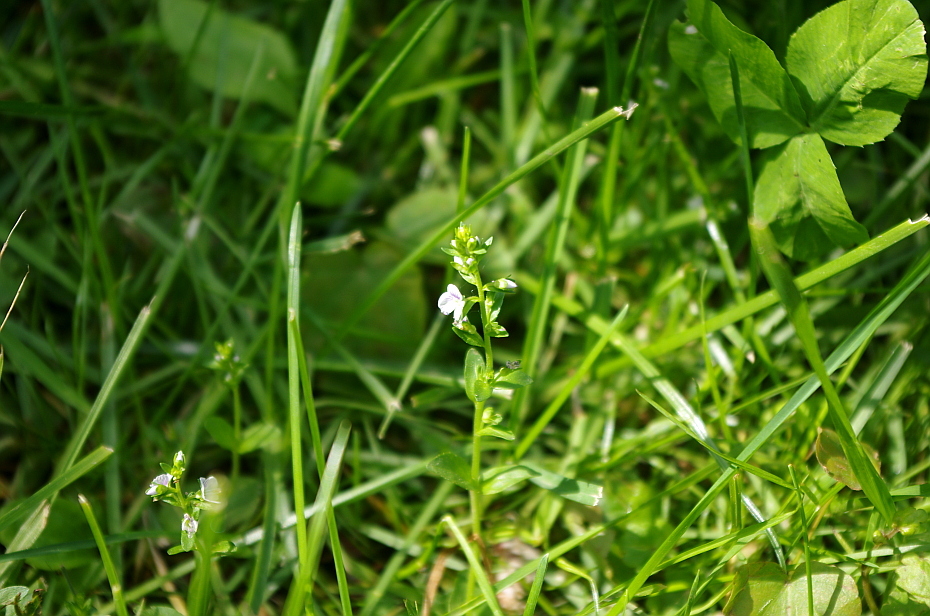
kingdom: Plantae
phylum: Tracheophyta
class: Magnoliopsida
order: Lamiales
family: Plantaginaceae
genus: Veronica
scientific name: Veronica serpyllifolia
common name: Thyme-leaved speedwell
